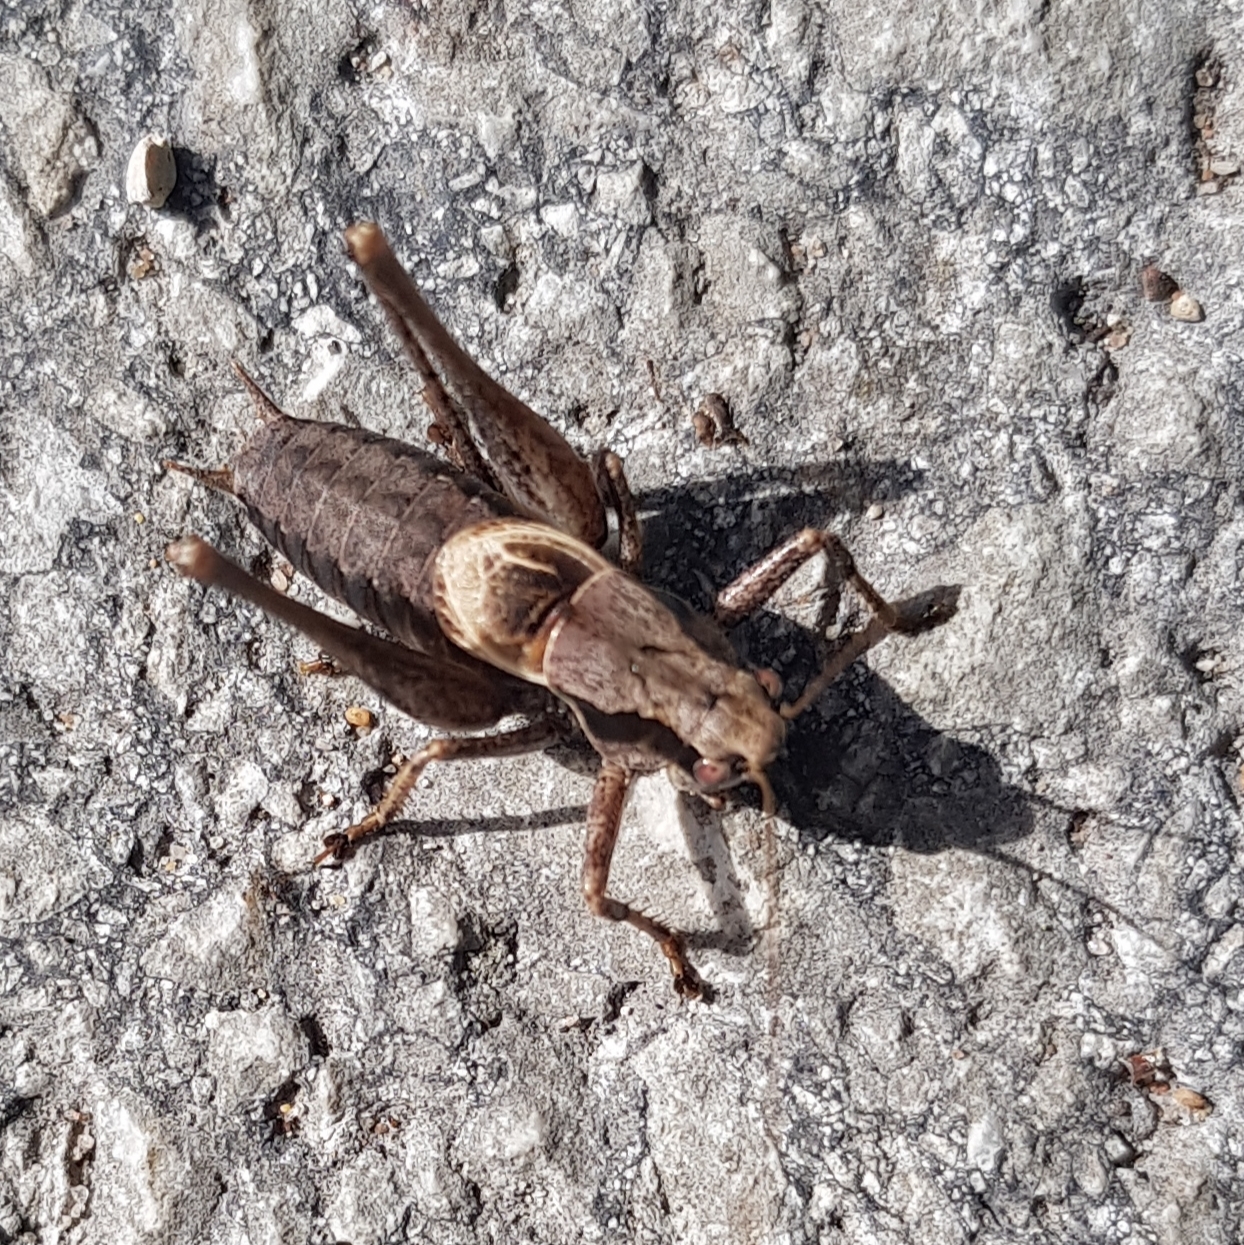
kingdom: Animalia
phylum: Arthropoda
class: Insecta
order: Orthoptera
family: Tettigoniidae
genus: Pholidoptera
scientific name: Pholidoptera griseoaptera
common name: Dark bush-cricket
